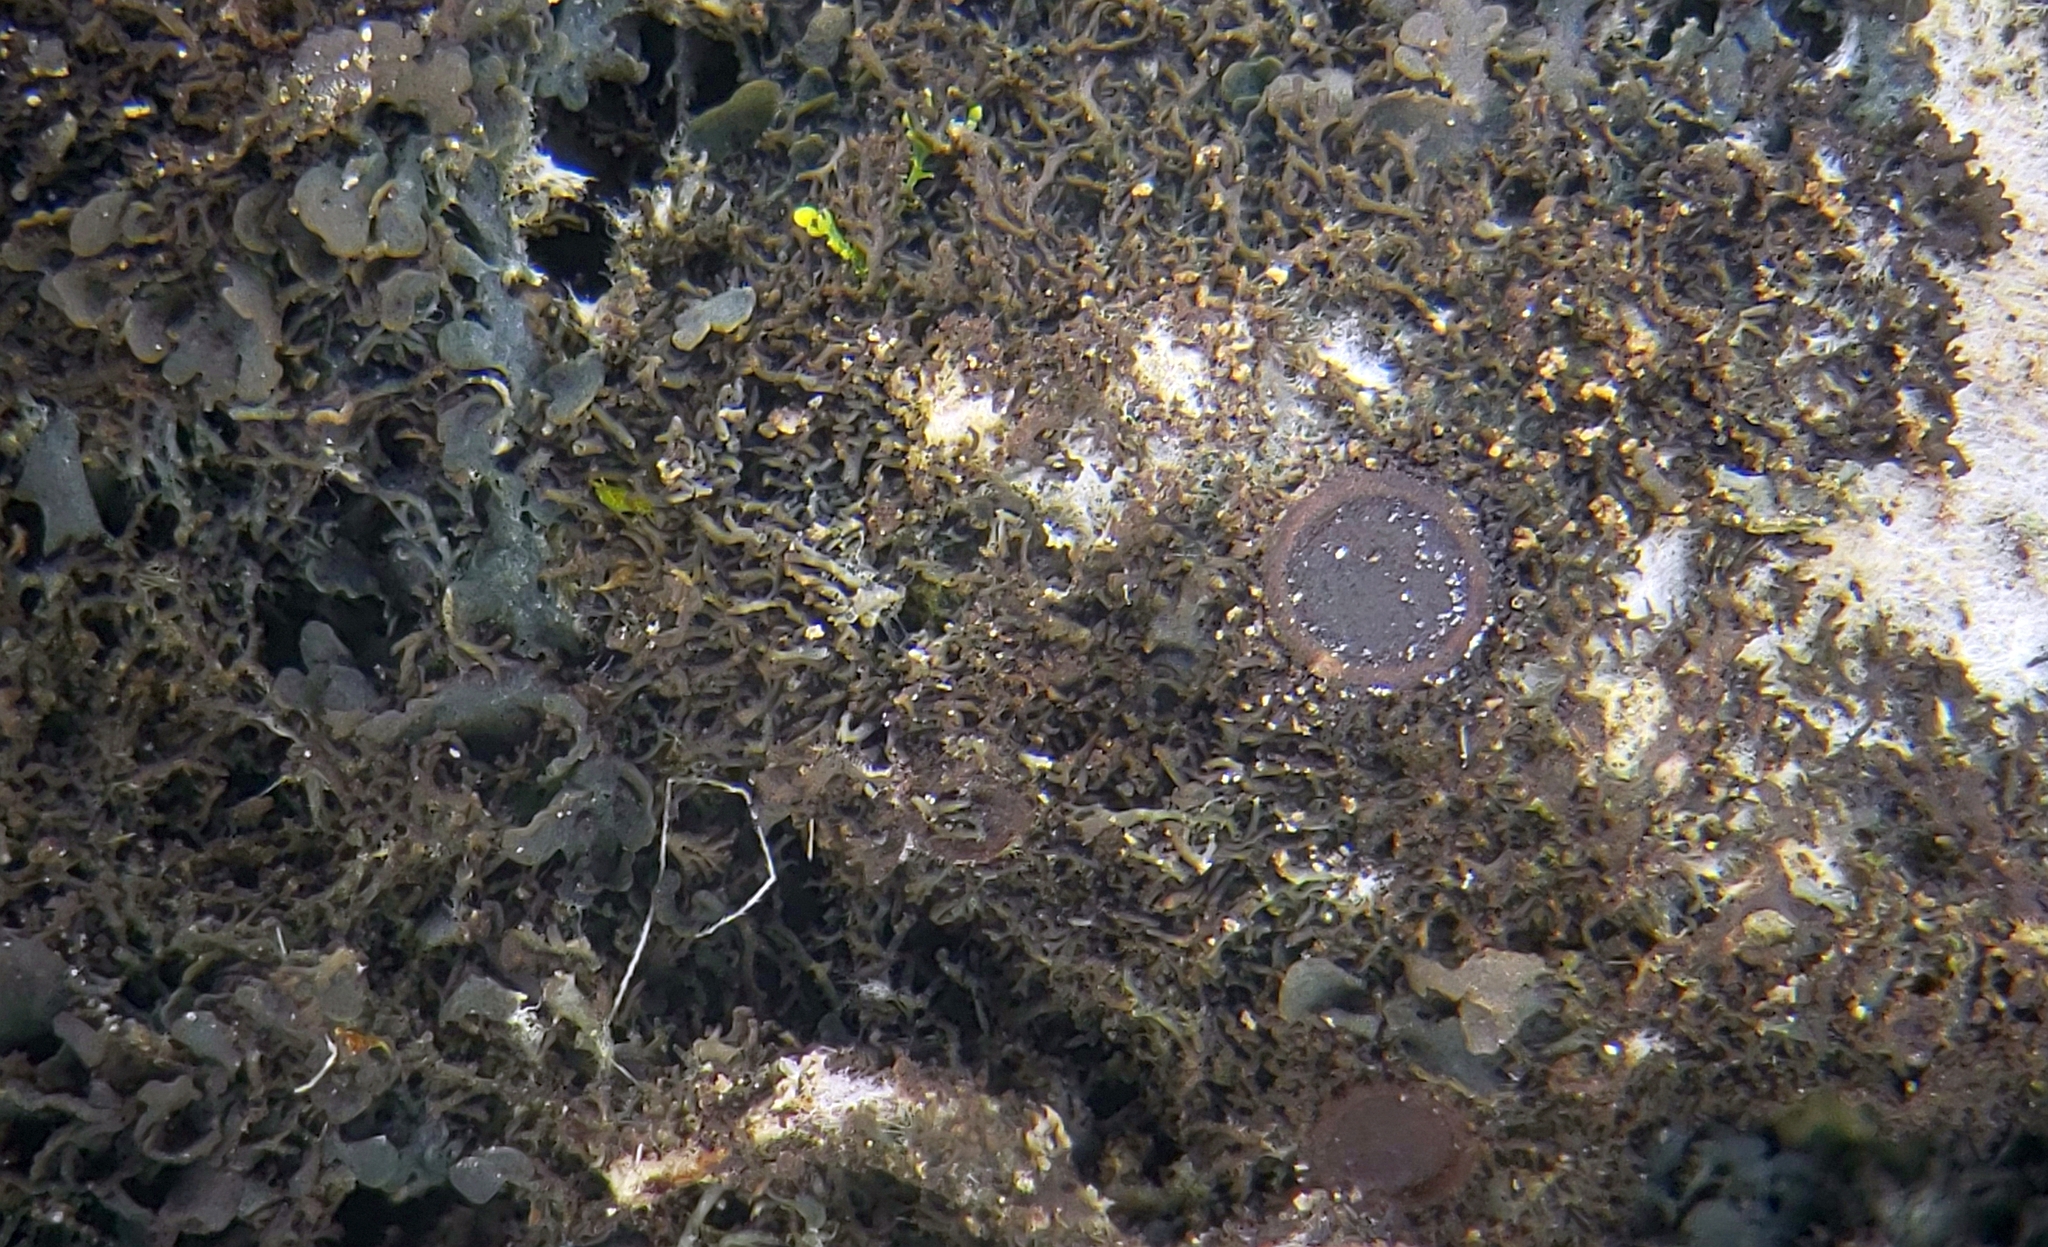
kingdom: Fungi
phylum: Ascomycota
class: Lecanoromycetes
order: Peltigerales
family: Collemataceae
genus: Scytinium
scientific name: Scytinium lichenoides
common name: Tattered jellyskin lichen
